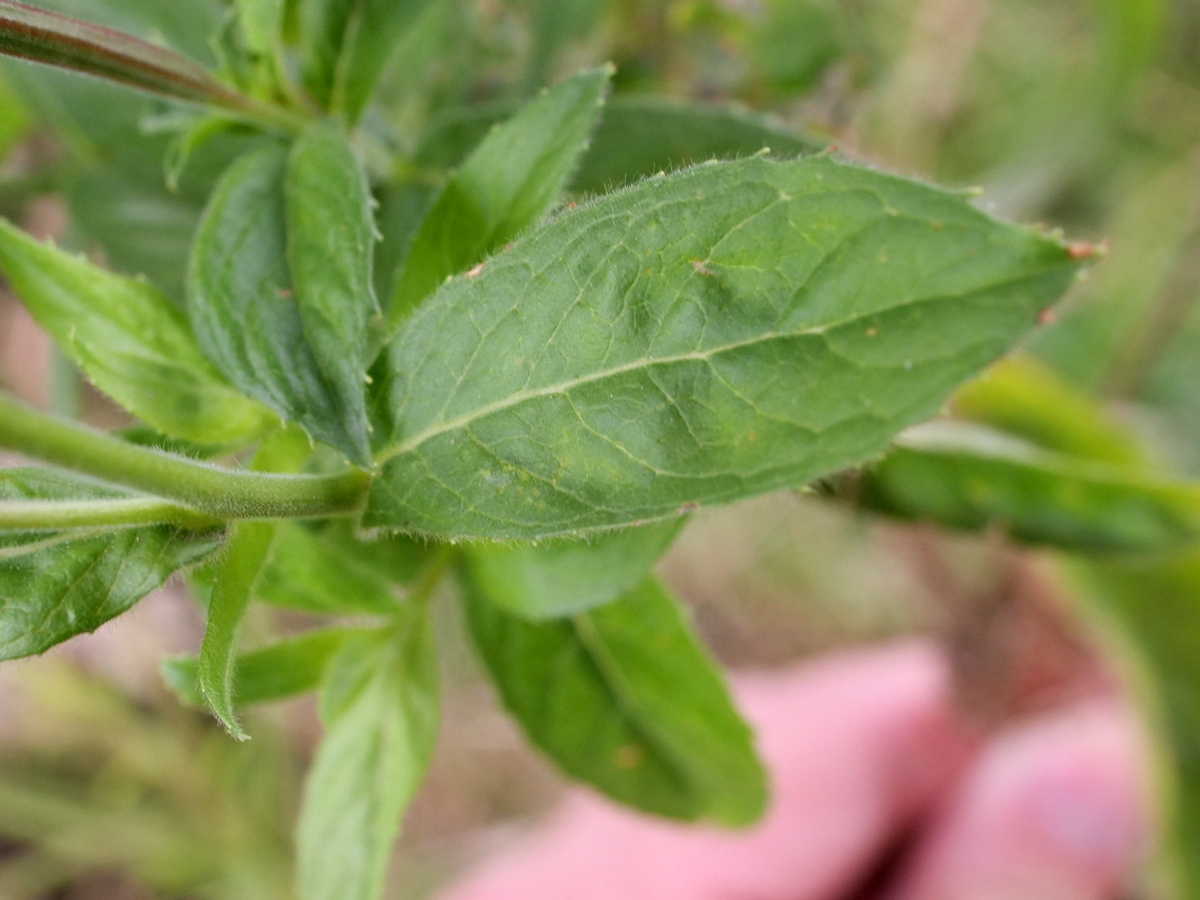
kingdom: Plantae
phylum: Tracheophyta
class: Magnoliopsida
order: Myrtales
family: Onagraceae
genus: Epilobium
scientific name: Epilobium hirsutum
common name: Great willowherb
